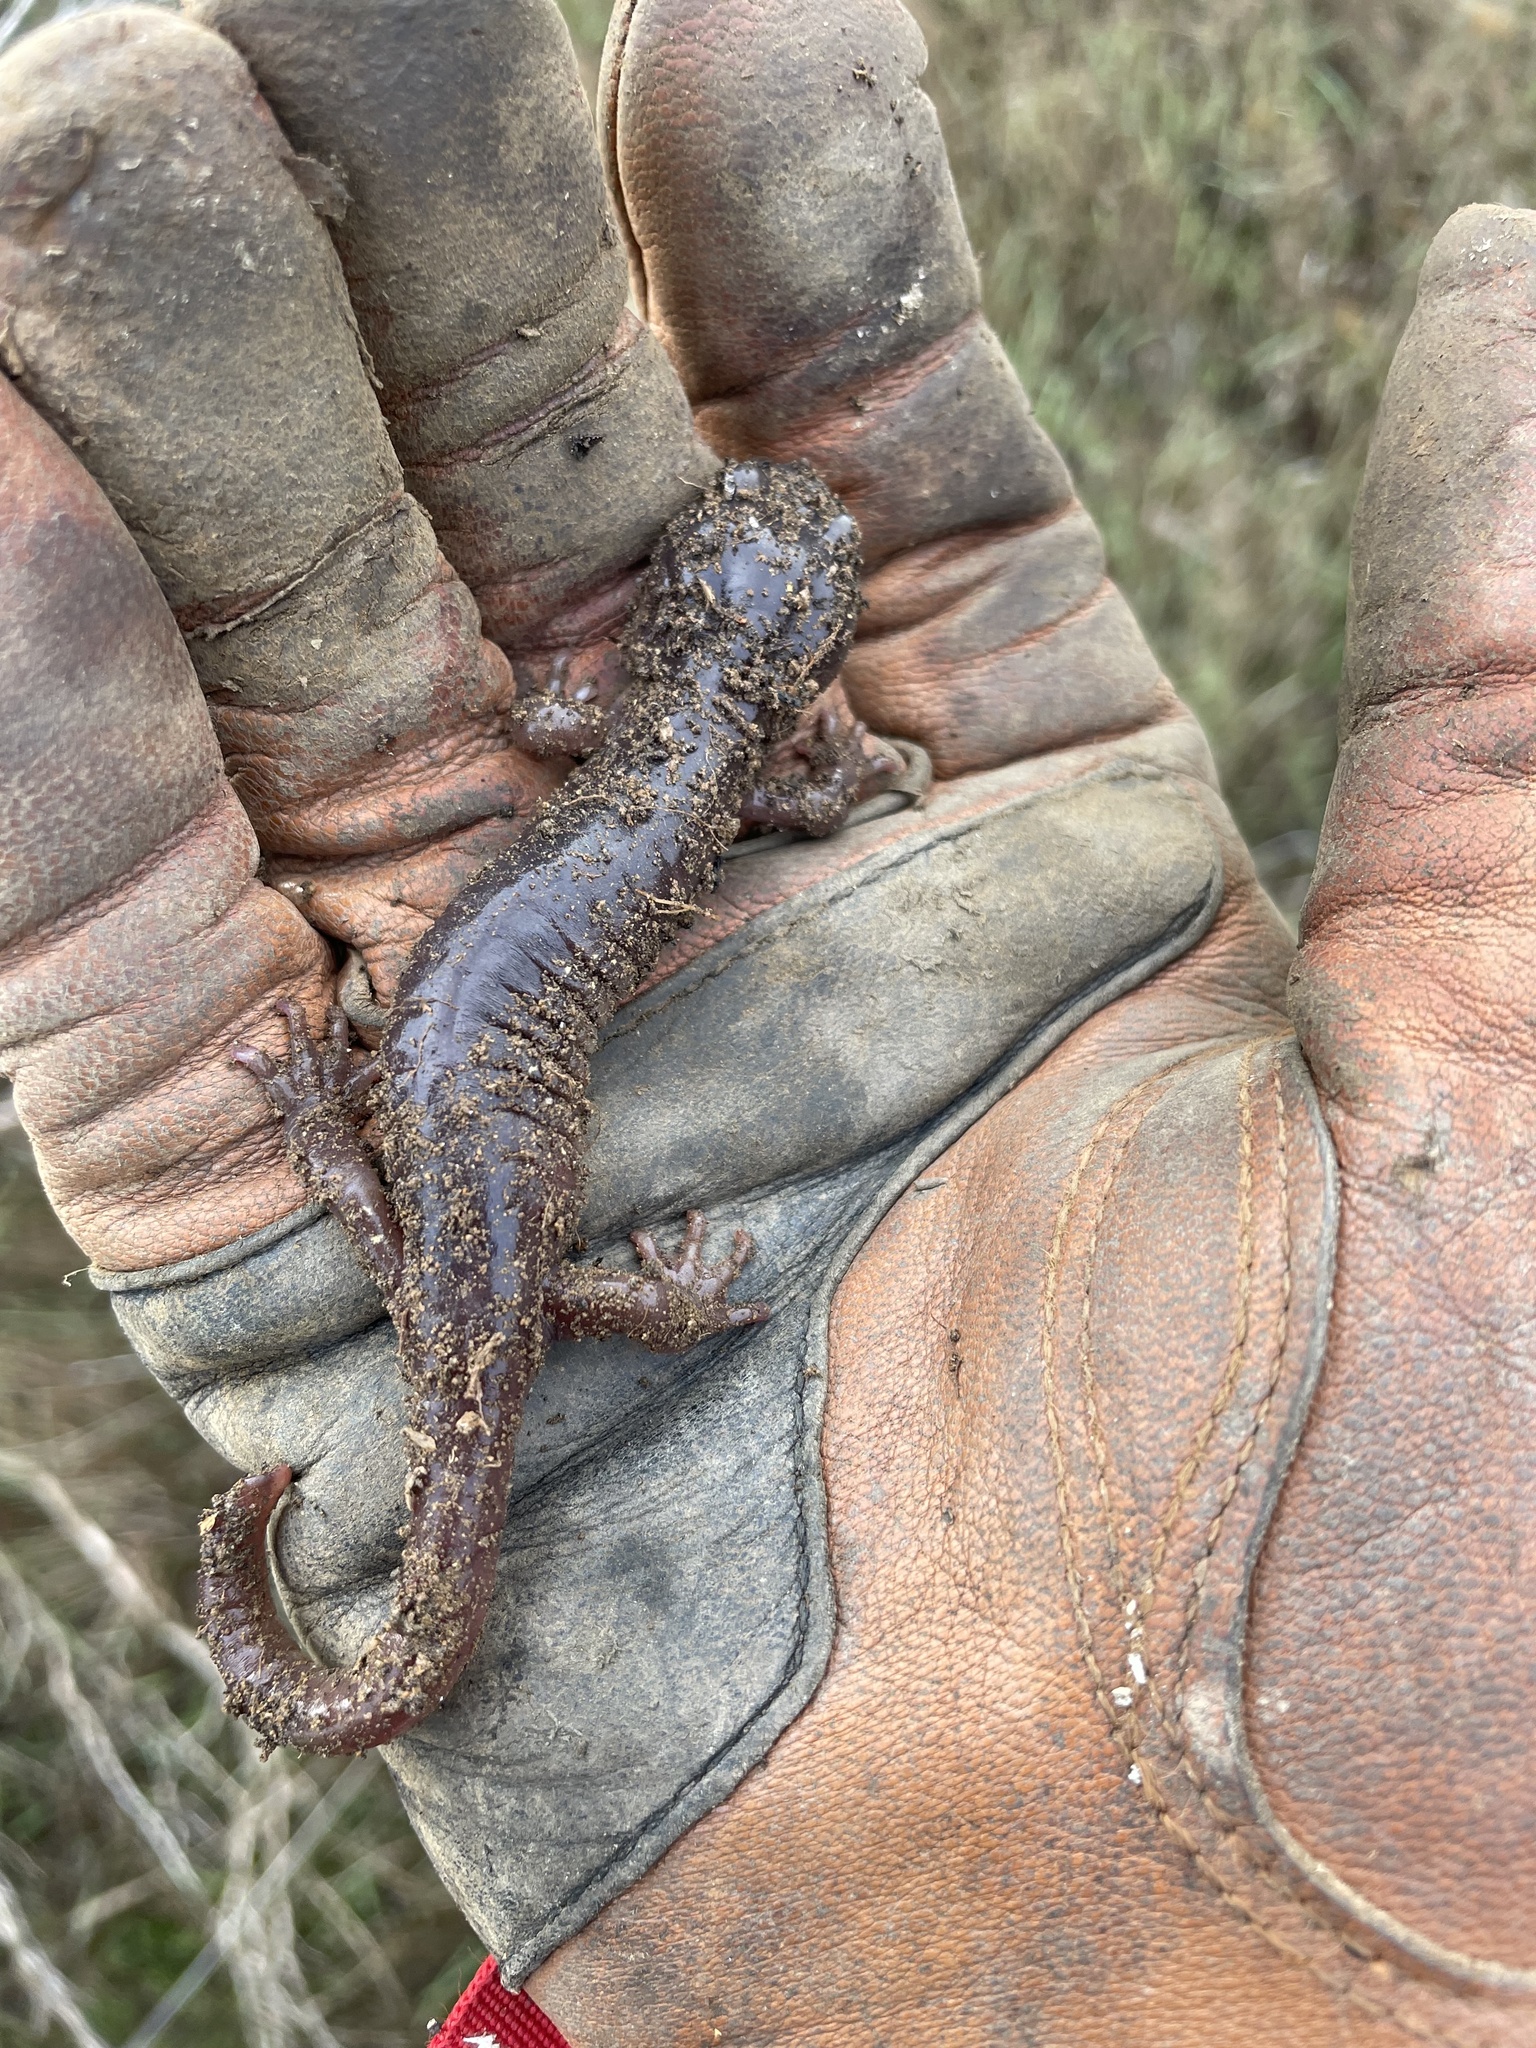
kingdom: Animalia
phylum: Chordata
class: Amphibia
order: Caudata
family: Plethodontidae
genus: Aneides
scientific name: Aneides lugubris
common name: Arboreal salamander
